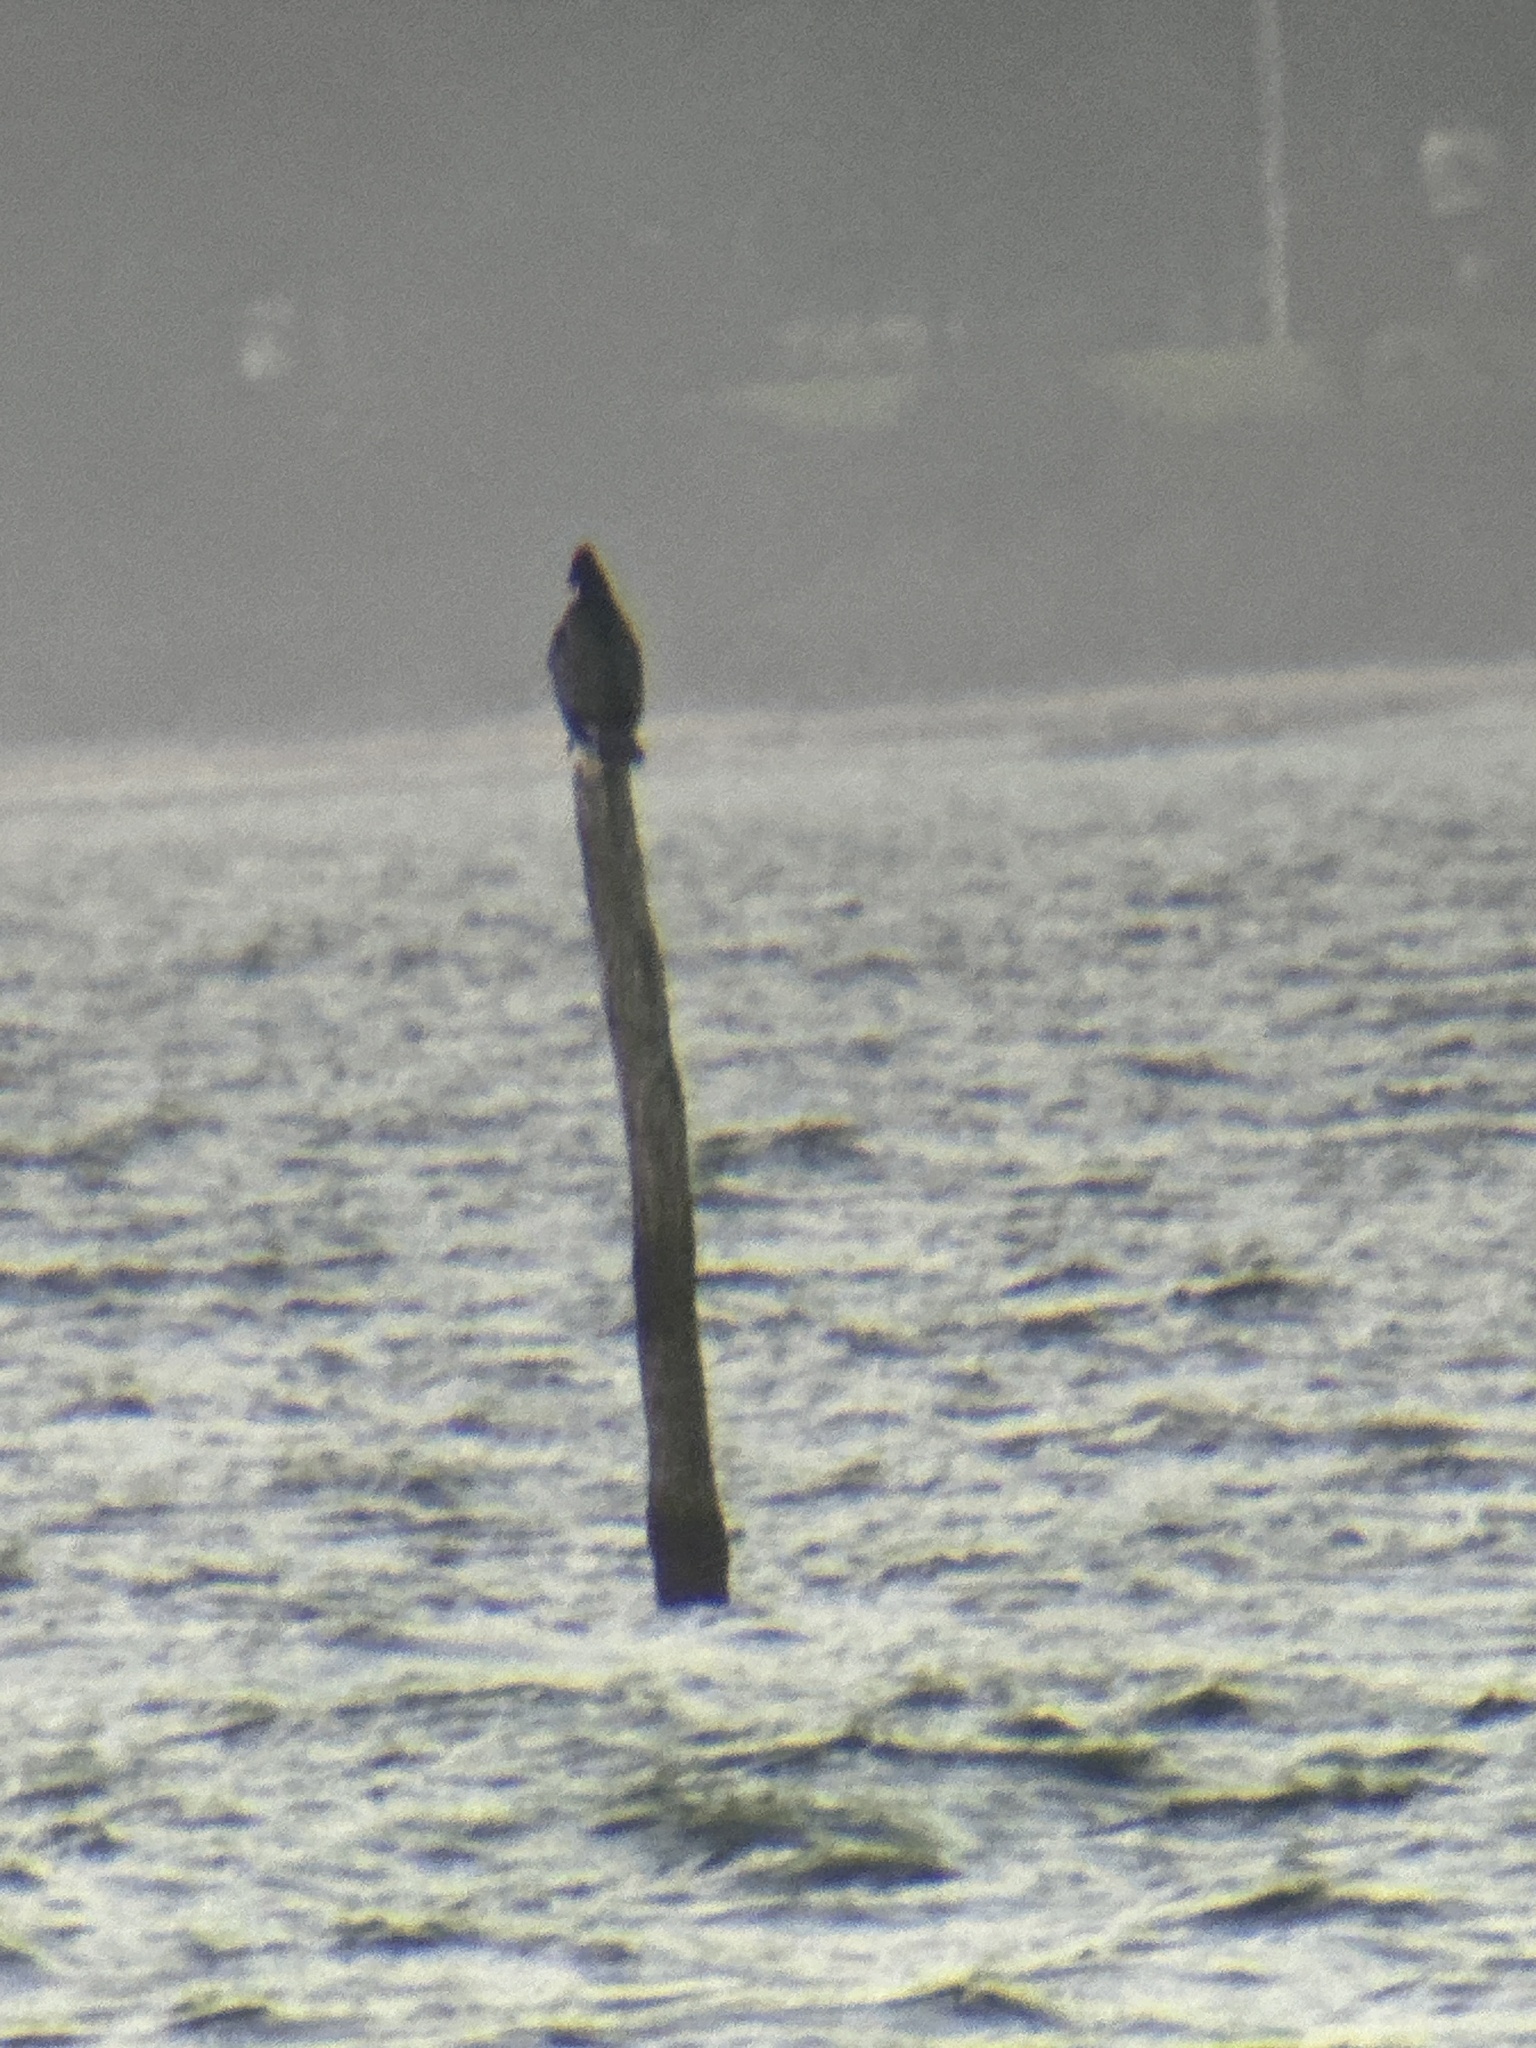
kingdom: Animalia
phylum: Chordata
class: Aves
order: Suliformes
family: Phalacrocoracidae
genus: Phalacrocorax
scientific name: Phalacrocorax carbo
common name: Great cormorant
